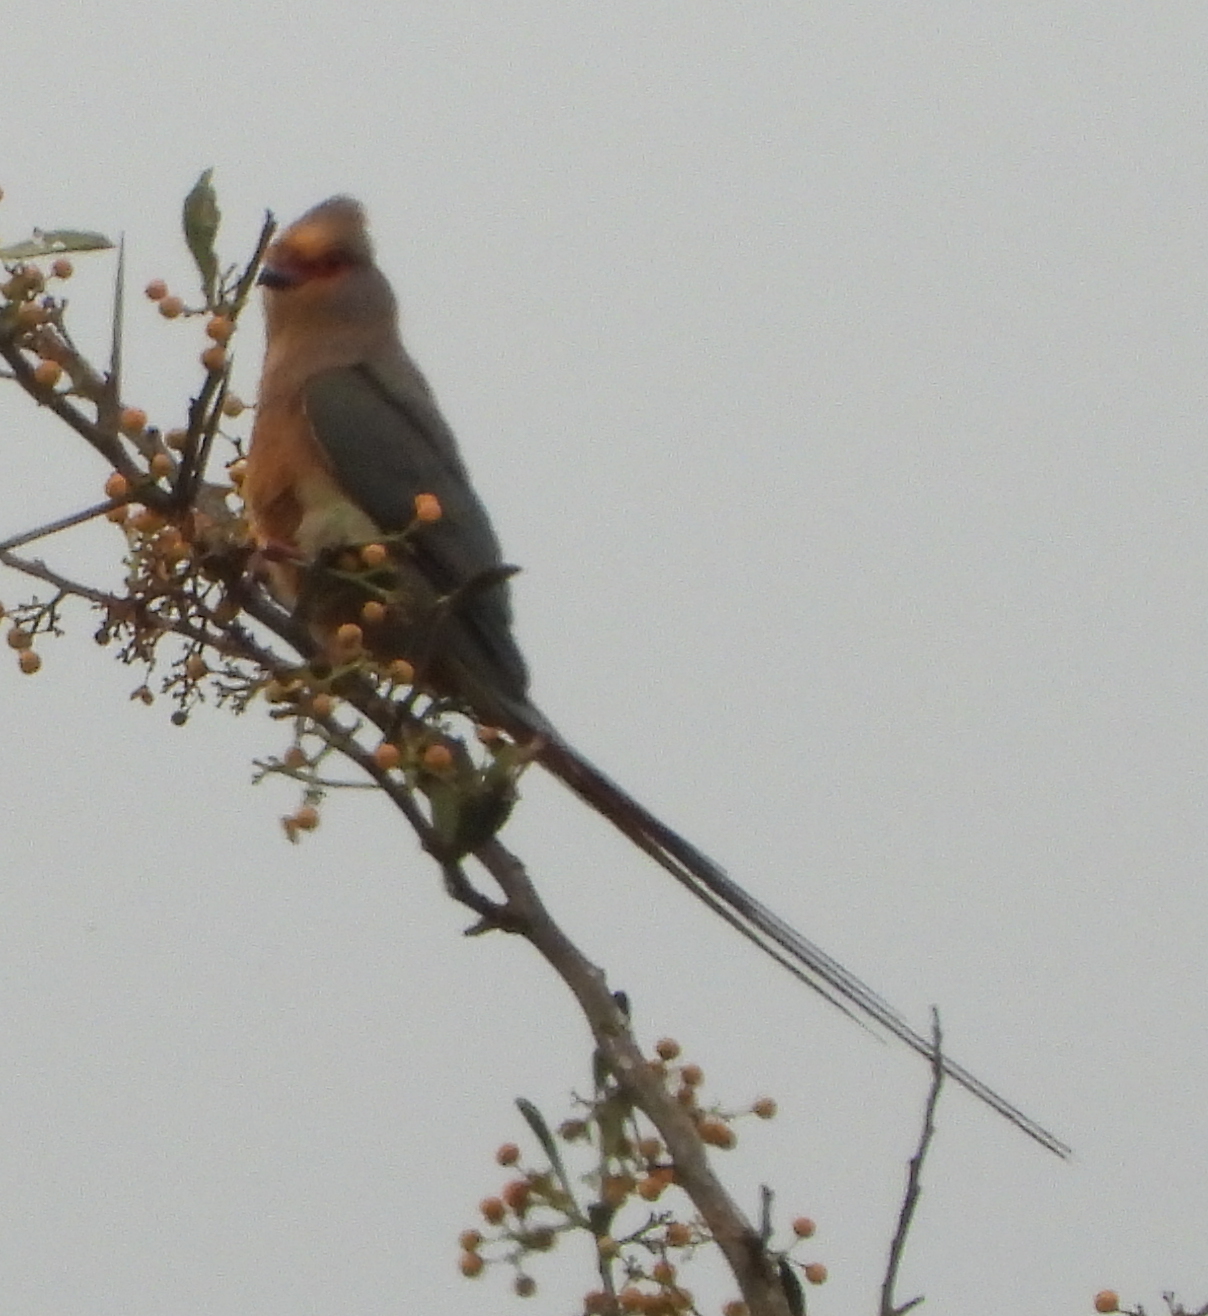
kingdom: Animalia
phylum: Chordata
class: Aves
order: Coliiformes
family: Coliidae
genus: Urocolius
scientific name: Urocolius indicus
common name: Red-faced mousebird
